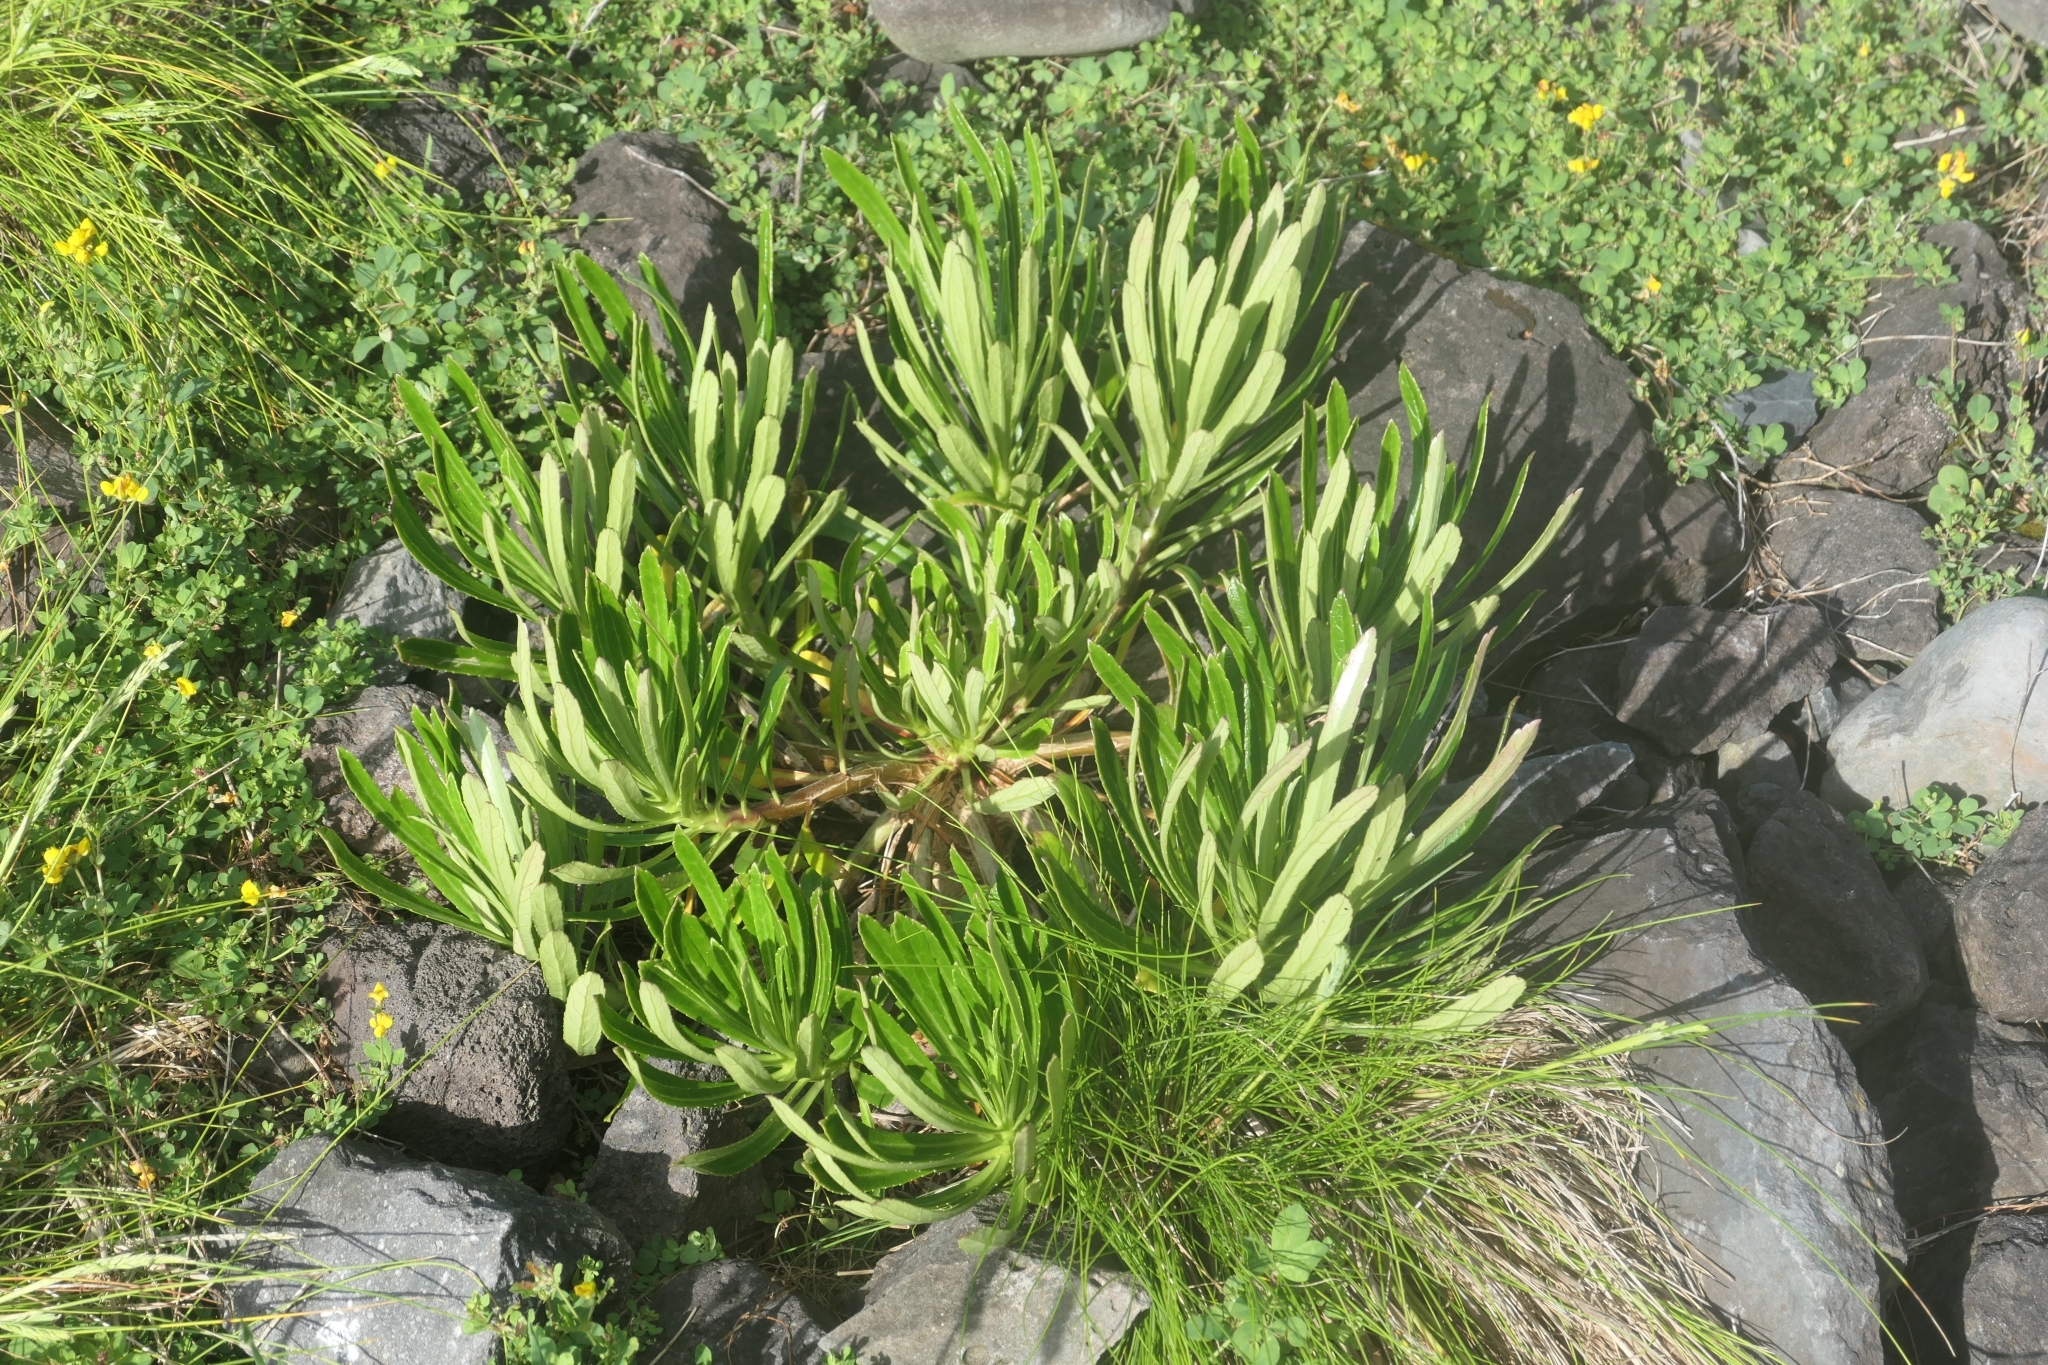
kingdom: Plantae
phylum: Tracheophyta
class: Magnoliopsida
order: Asterales
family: Campanulaceae
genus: Campanula
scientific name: Campanula vidalii
